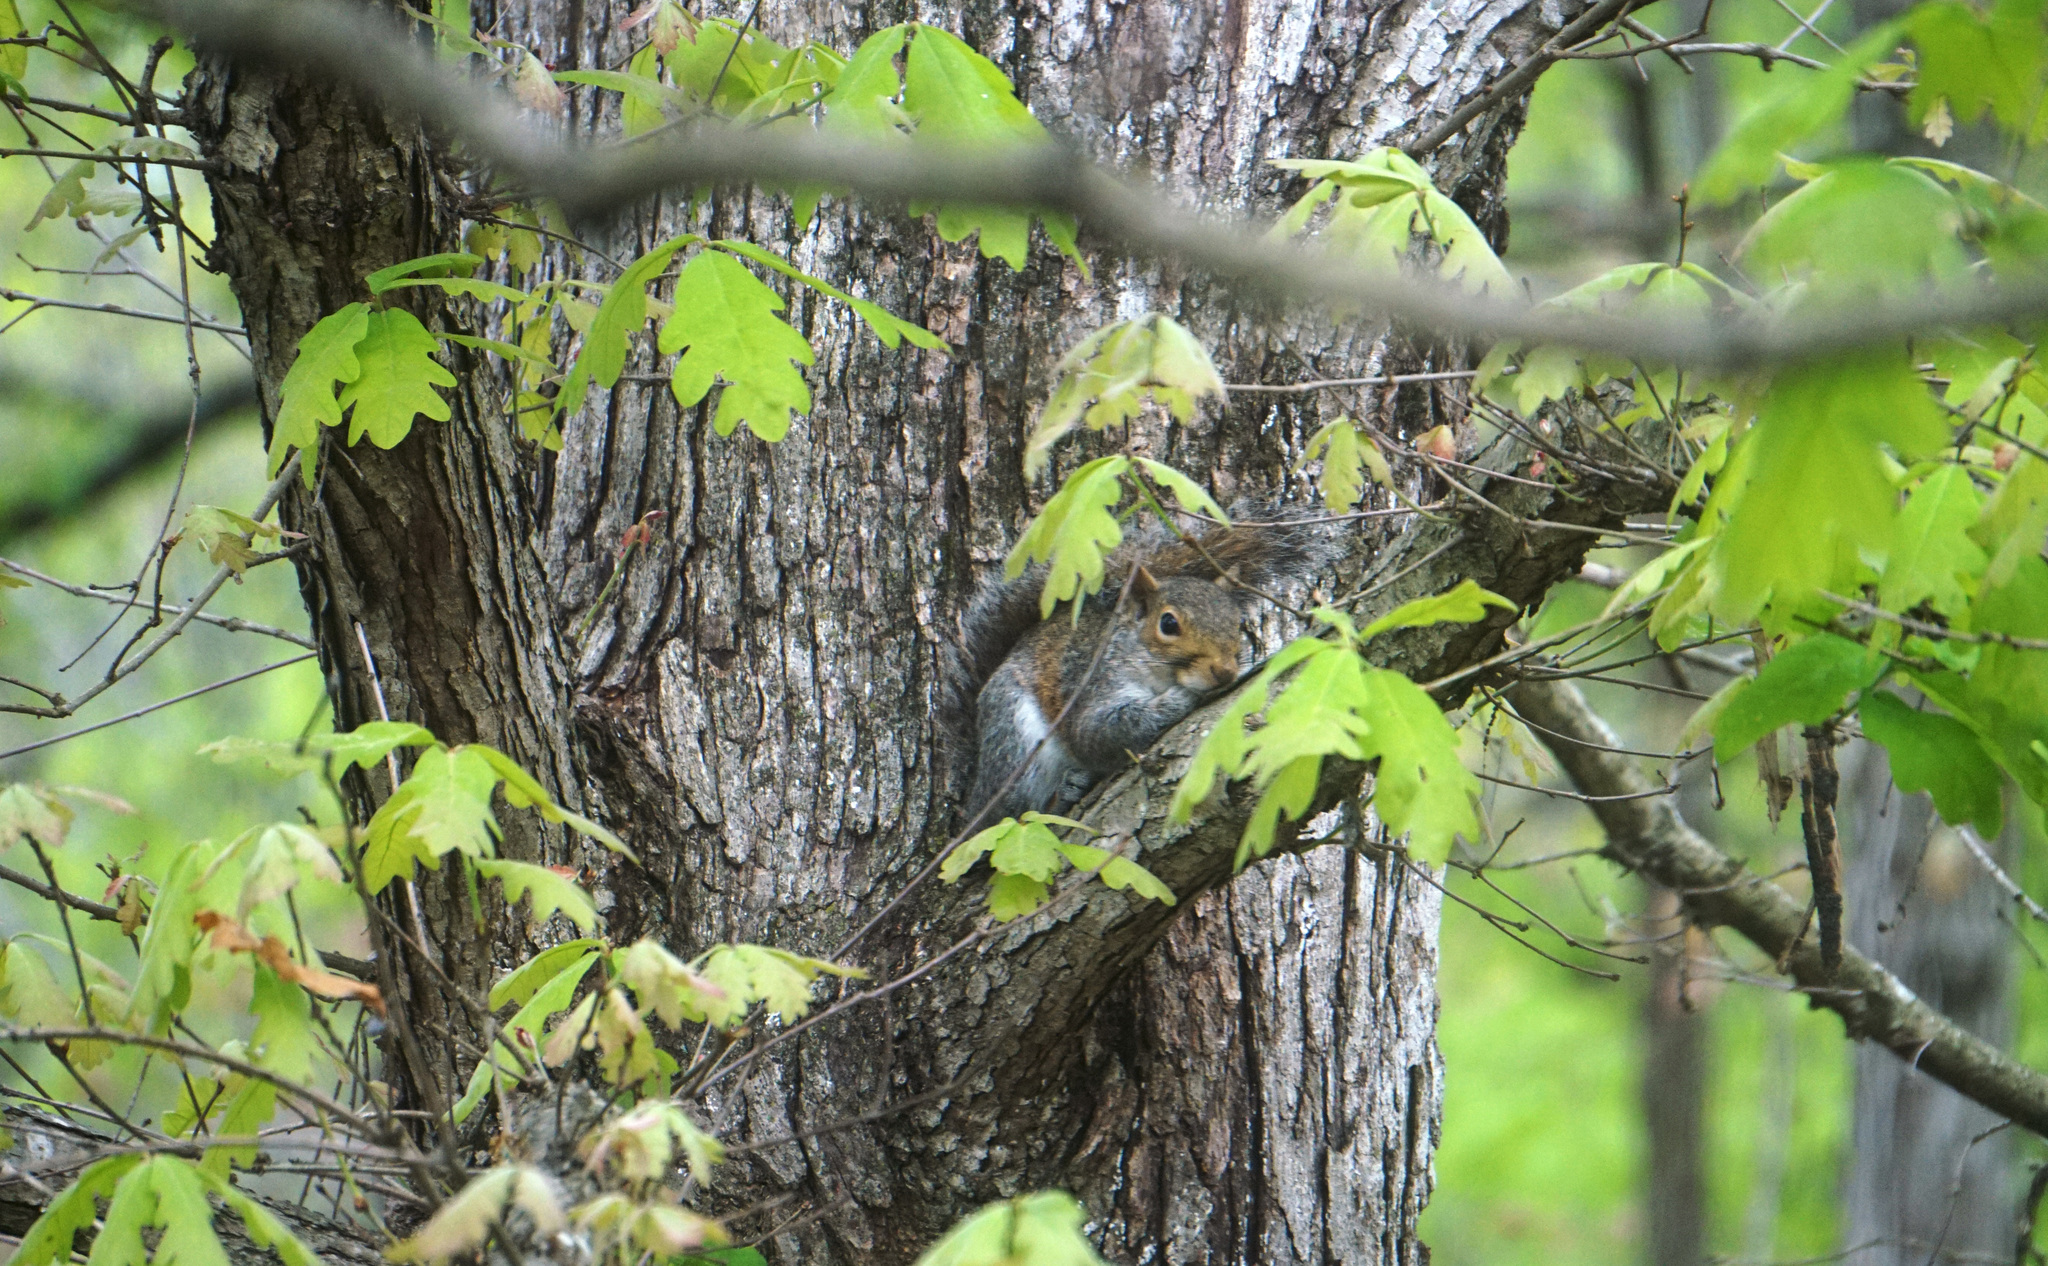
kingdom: Animalia
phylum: Chordata
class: Mammalia
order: Rodentia
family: Sciuridae
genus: Sciurus
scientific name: Sciurus carolinensis
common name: Eastern gray squirrel
